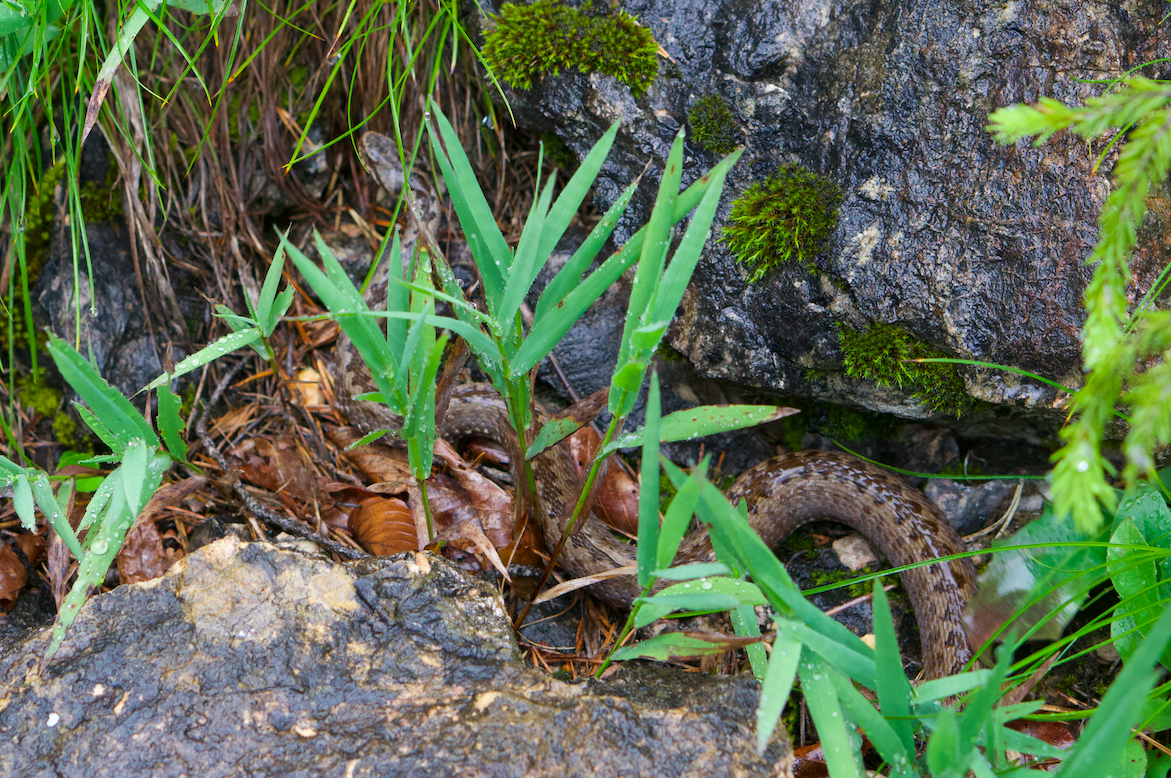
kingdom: Animalia
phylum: Chordata
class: Squamata
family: Viperidae
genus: Vipera
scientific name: Vipera berus
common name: Adder
